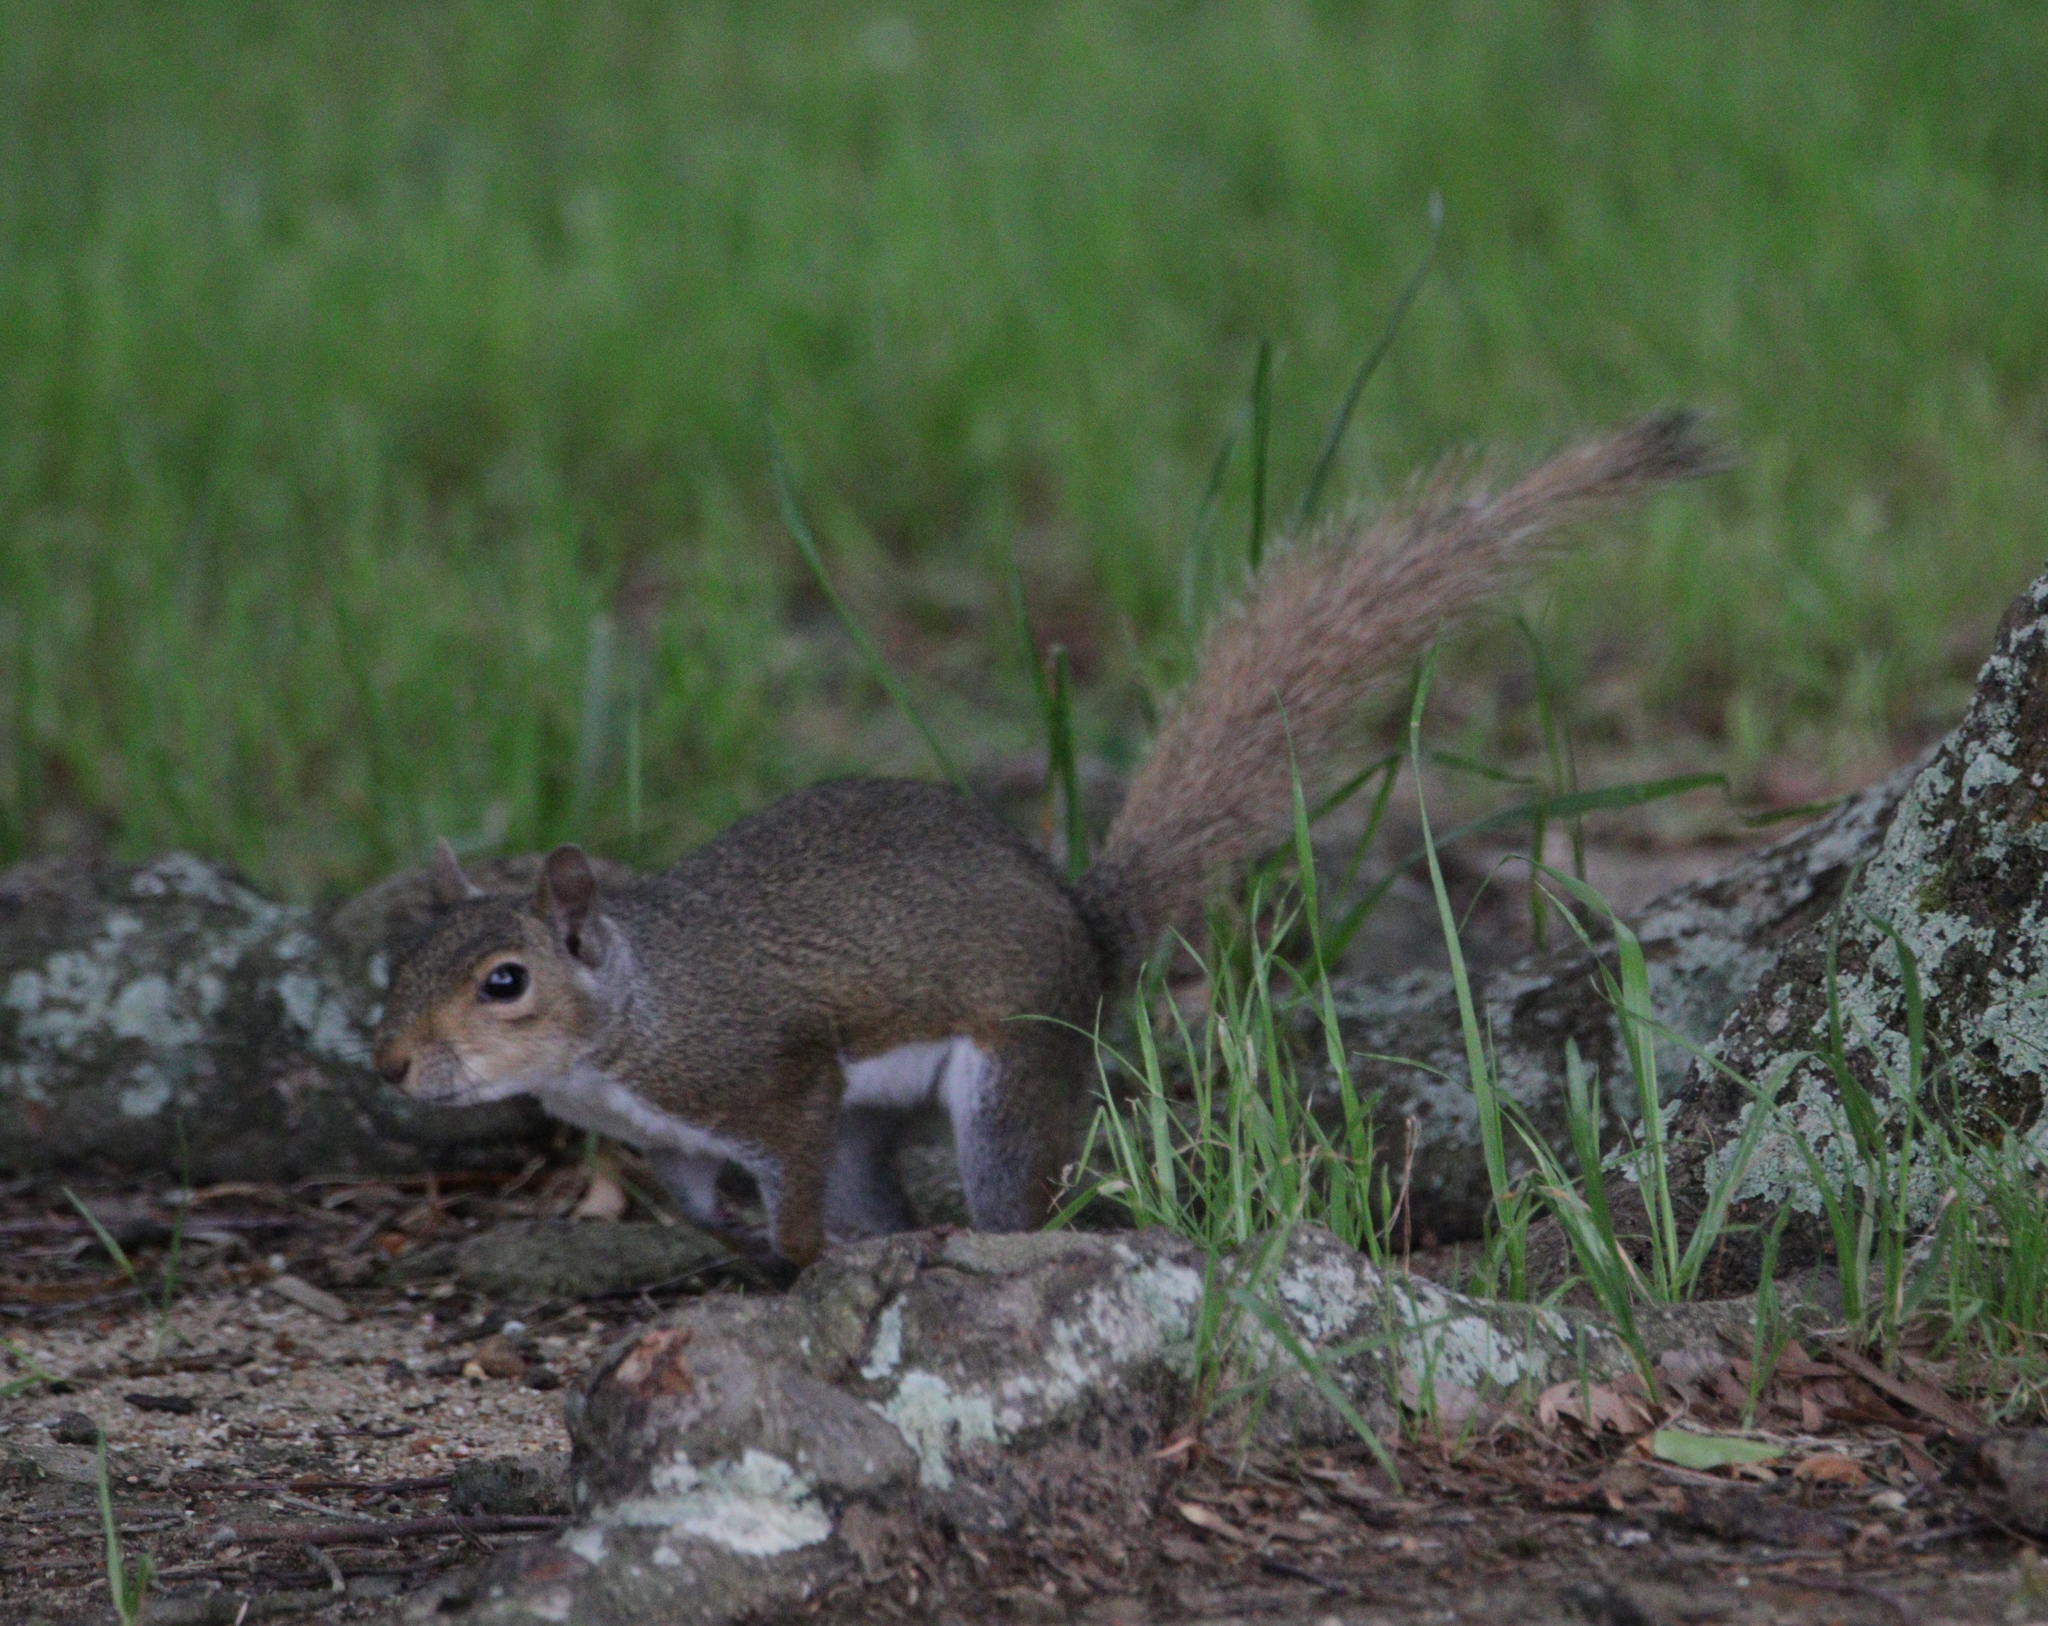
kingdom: Animalia
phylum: Chordata
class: Mammalia
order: Rodentia
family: Sciuridae
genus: Sciurus
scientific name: Sciurus carolinensis
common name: Eastern gray squirrel
